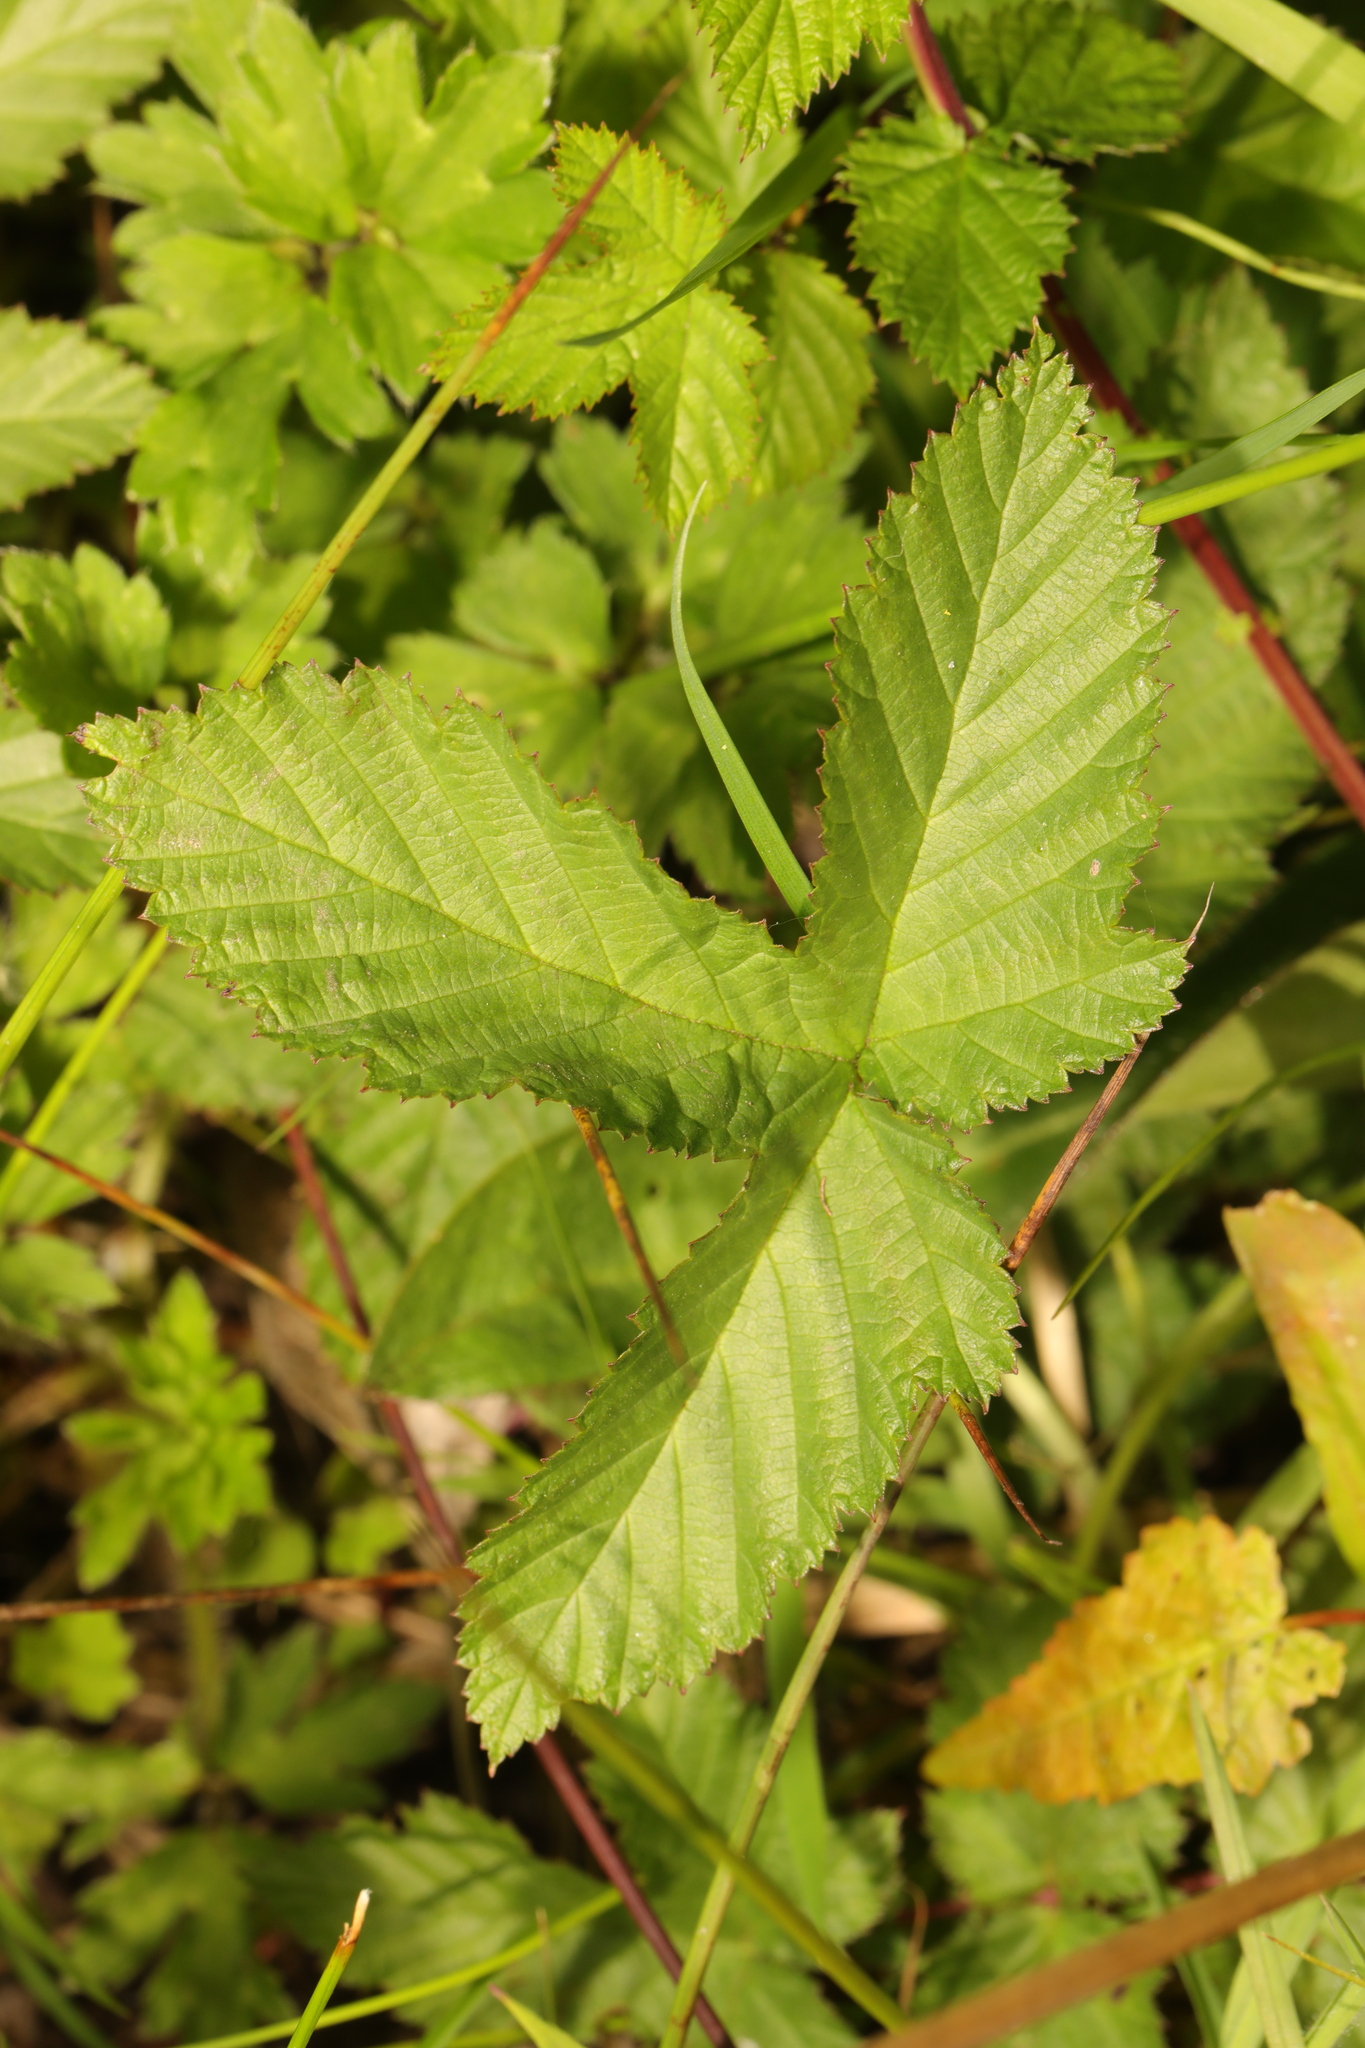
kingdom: Plantae
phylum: Tracheophyta
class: Magnoliopsida
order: Rosales
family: Rosaceae
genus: Filipendula
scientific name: Filipendula ulmaria
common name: Meadowsweet
